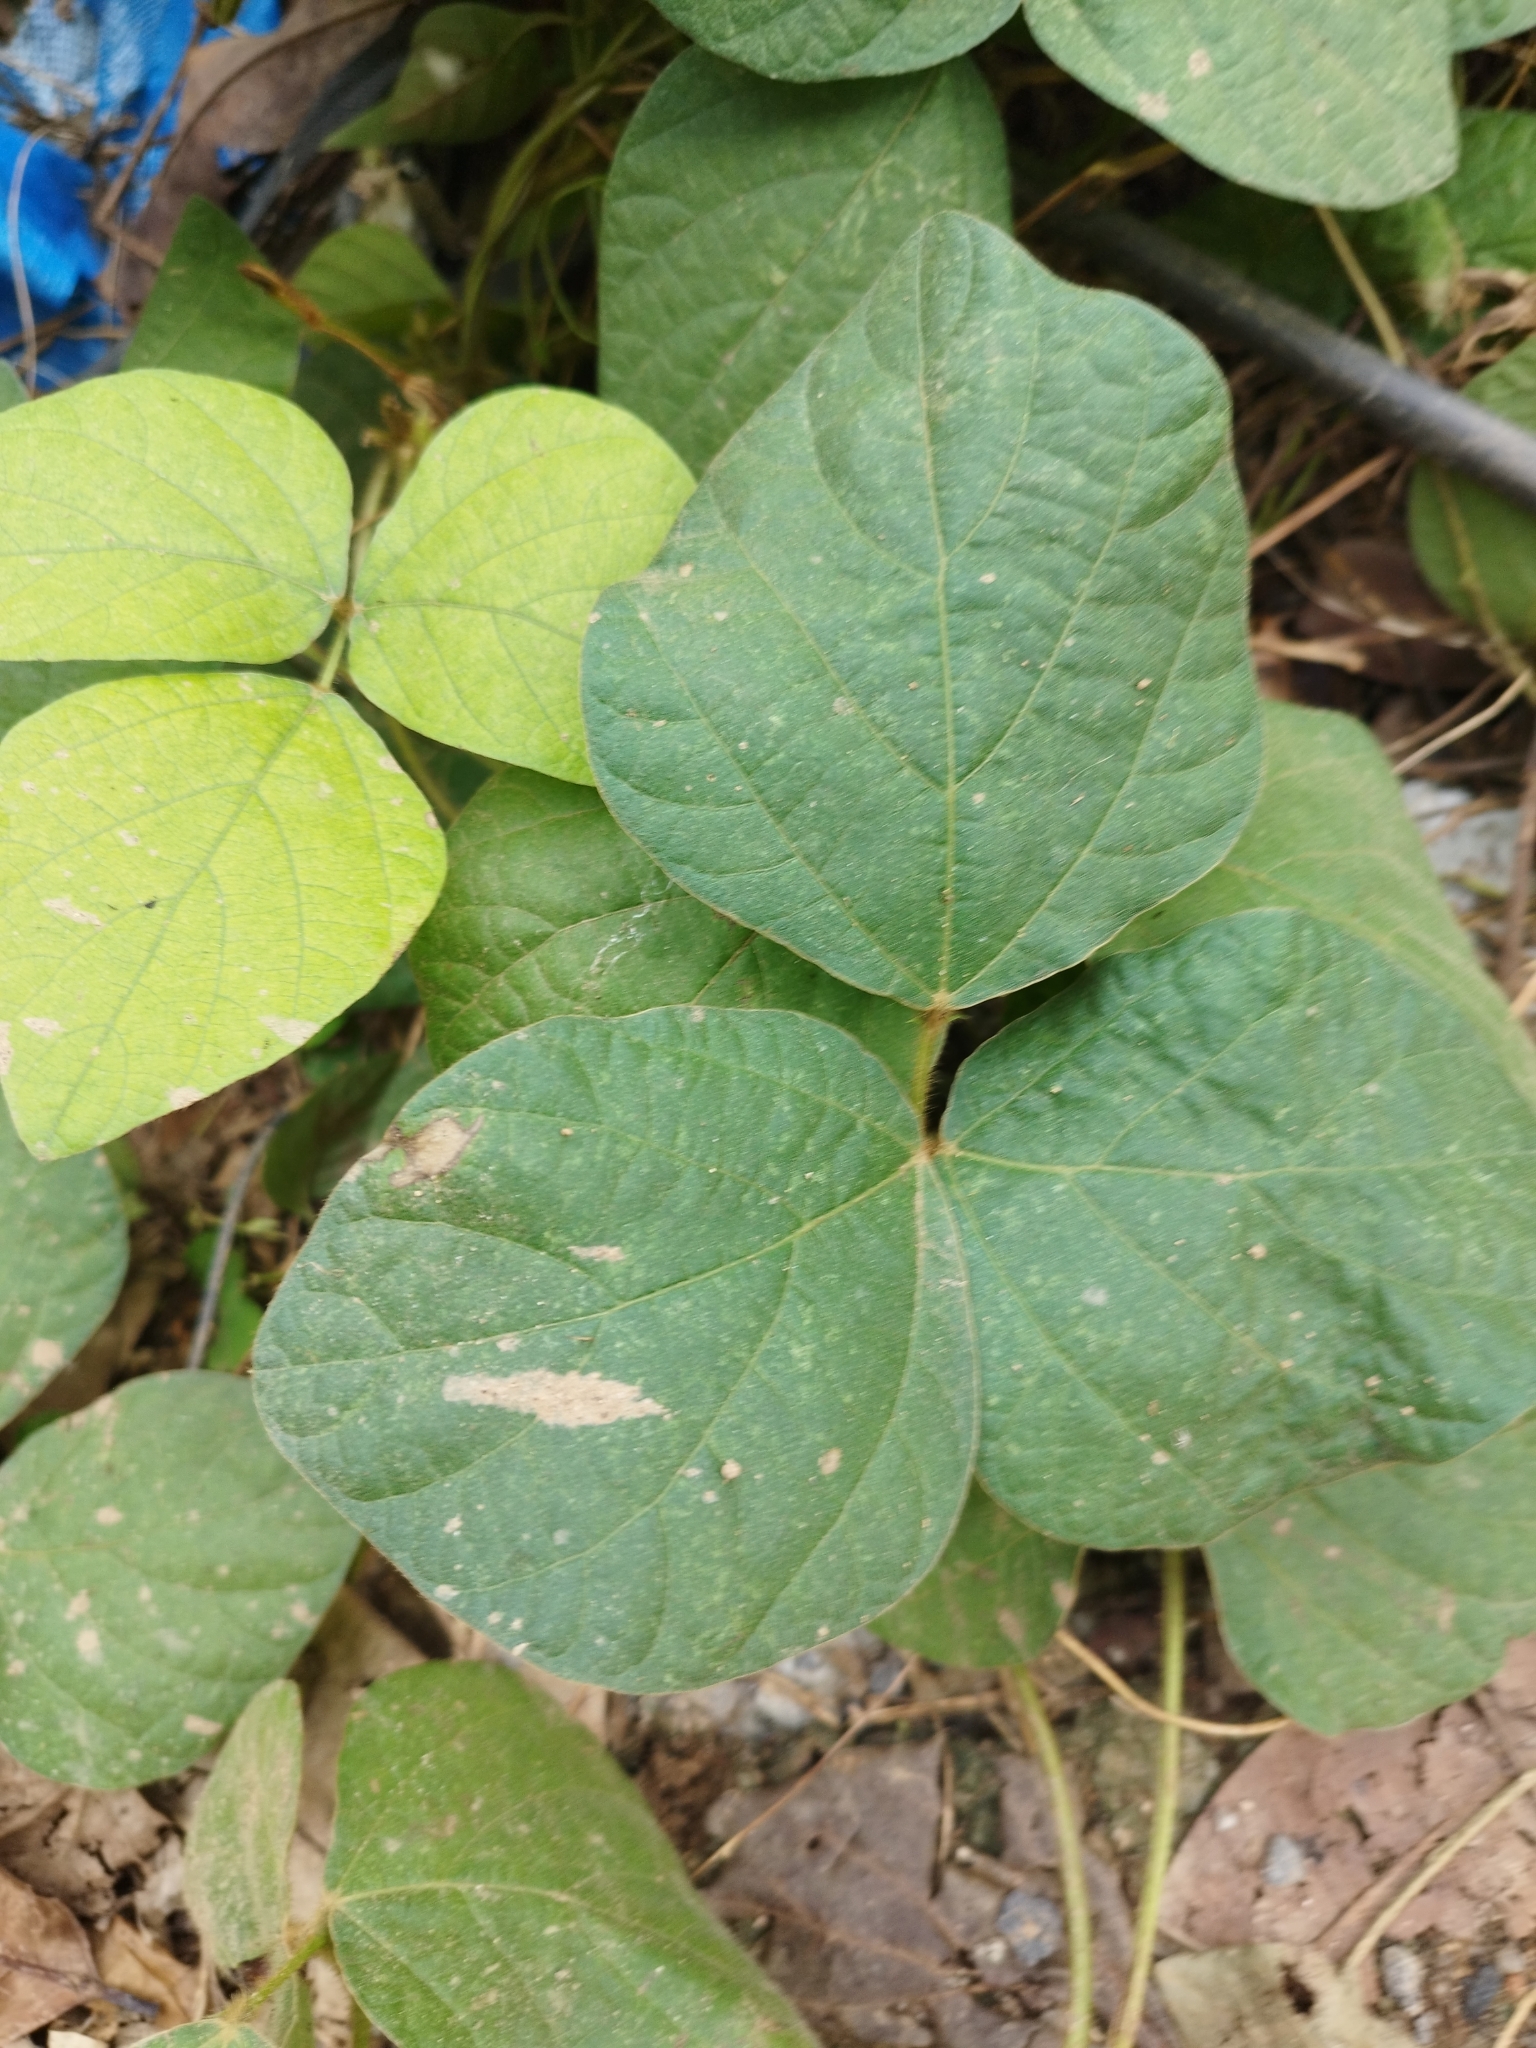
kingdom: Plantae
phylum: Tracheophyta
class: Magnoliopsida
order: Fabales
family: Fabaceae
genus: Calopogonium
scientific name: Calopogonium mucunoides
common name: Calopo
